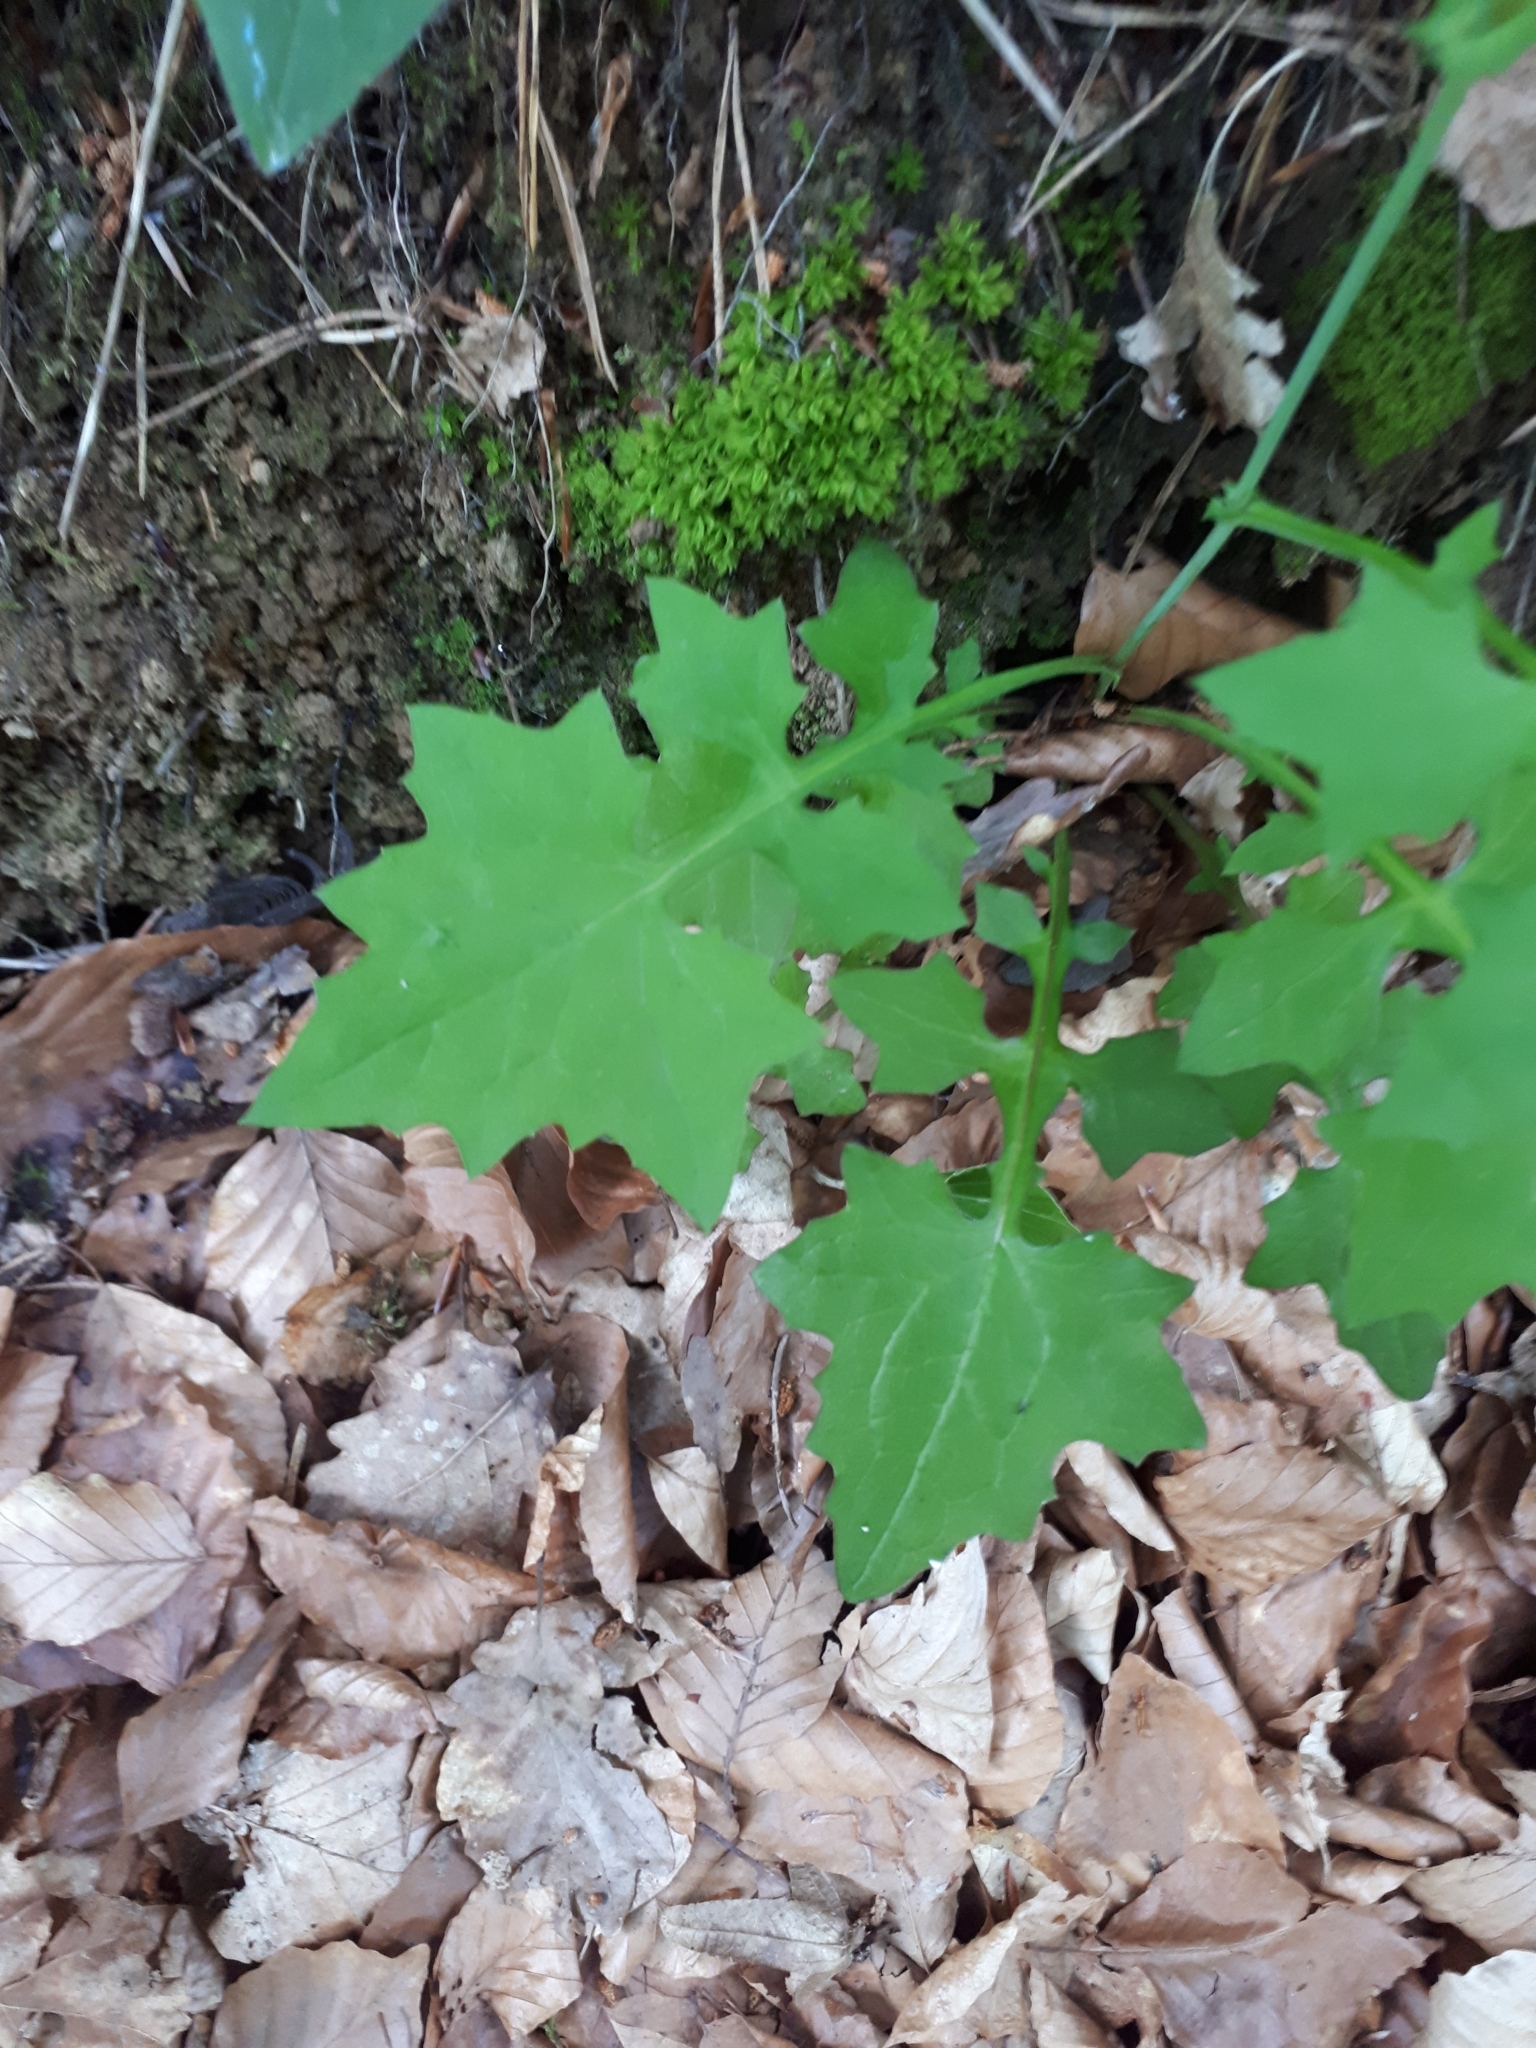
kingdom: Plantae
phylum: Tracheophyta
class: Magnoliopsida
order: Asterales
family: Asteraceae
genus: Mycelis
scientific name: Mycelis muralis
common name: Wall lettuce
